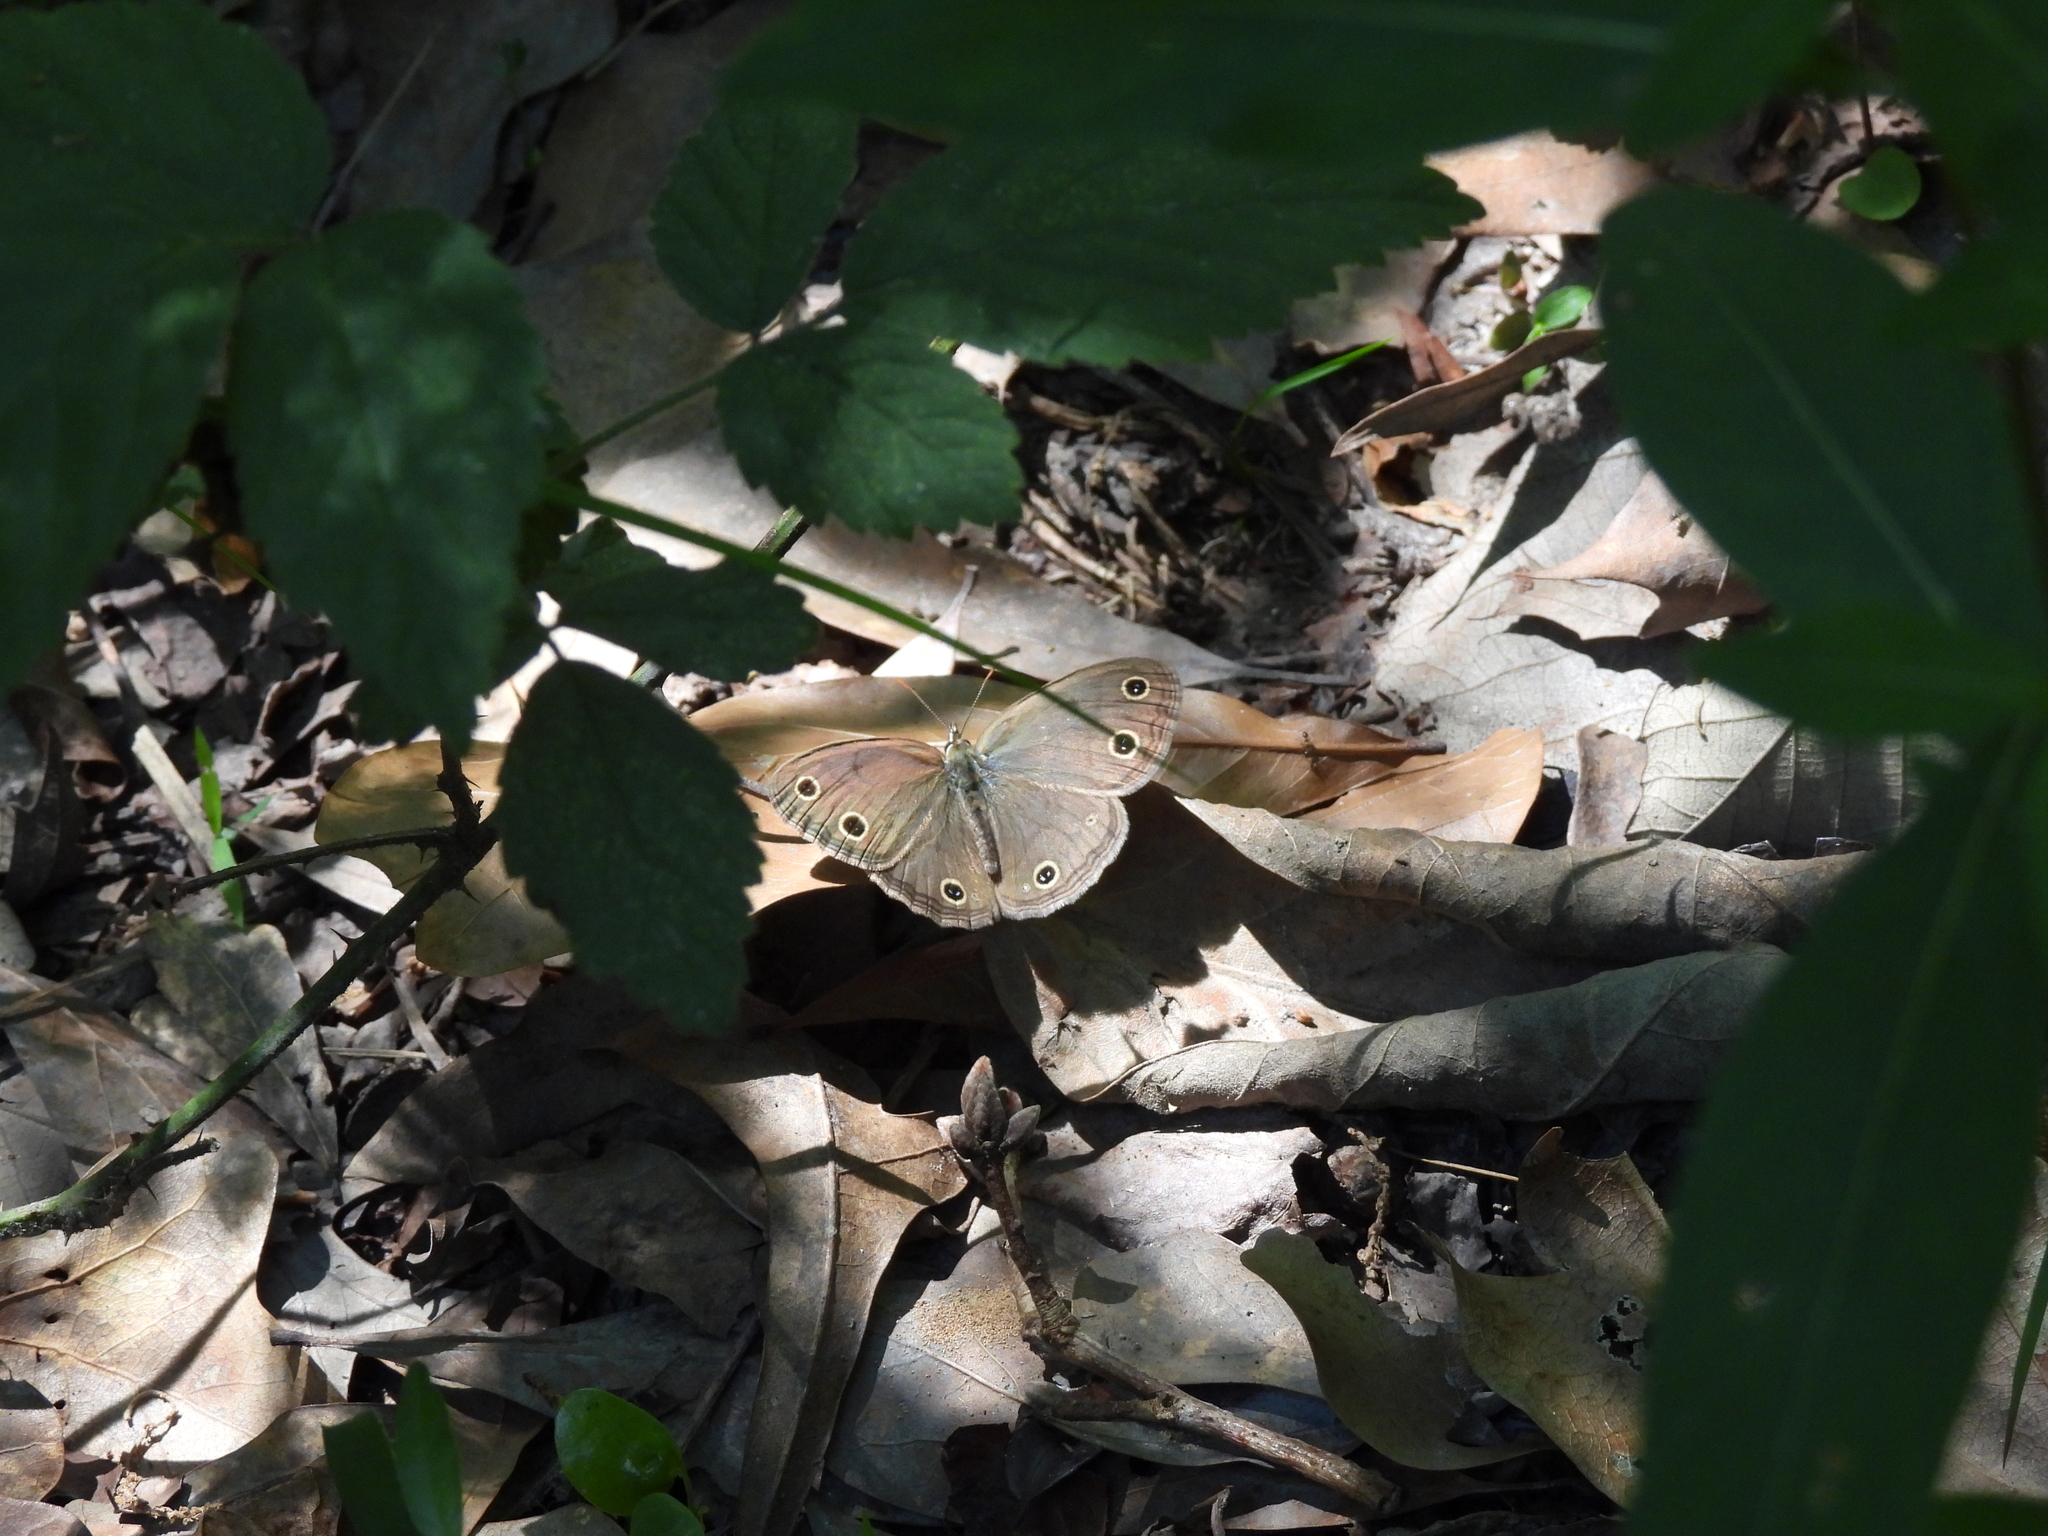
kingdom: Animalia
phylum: Arthropoda
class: Insecta
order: Lepidoptera
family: Nymphalidae
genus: Euptychia
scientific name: Euptychia cymela
